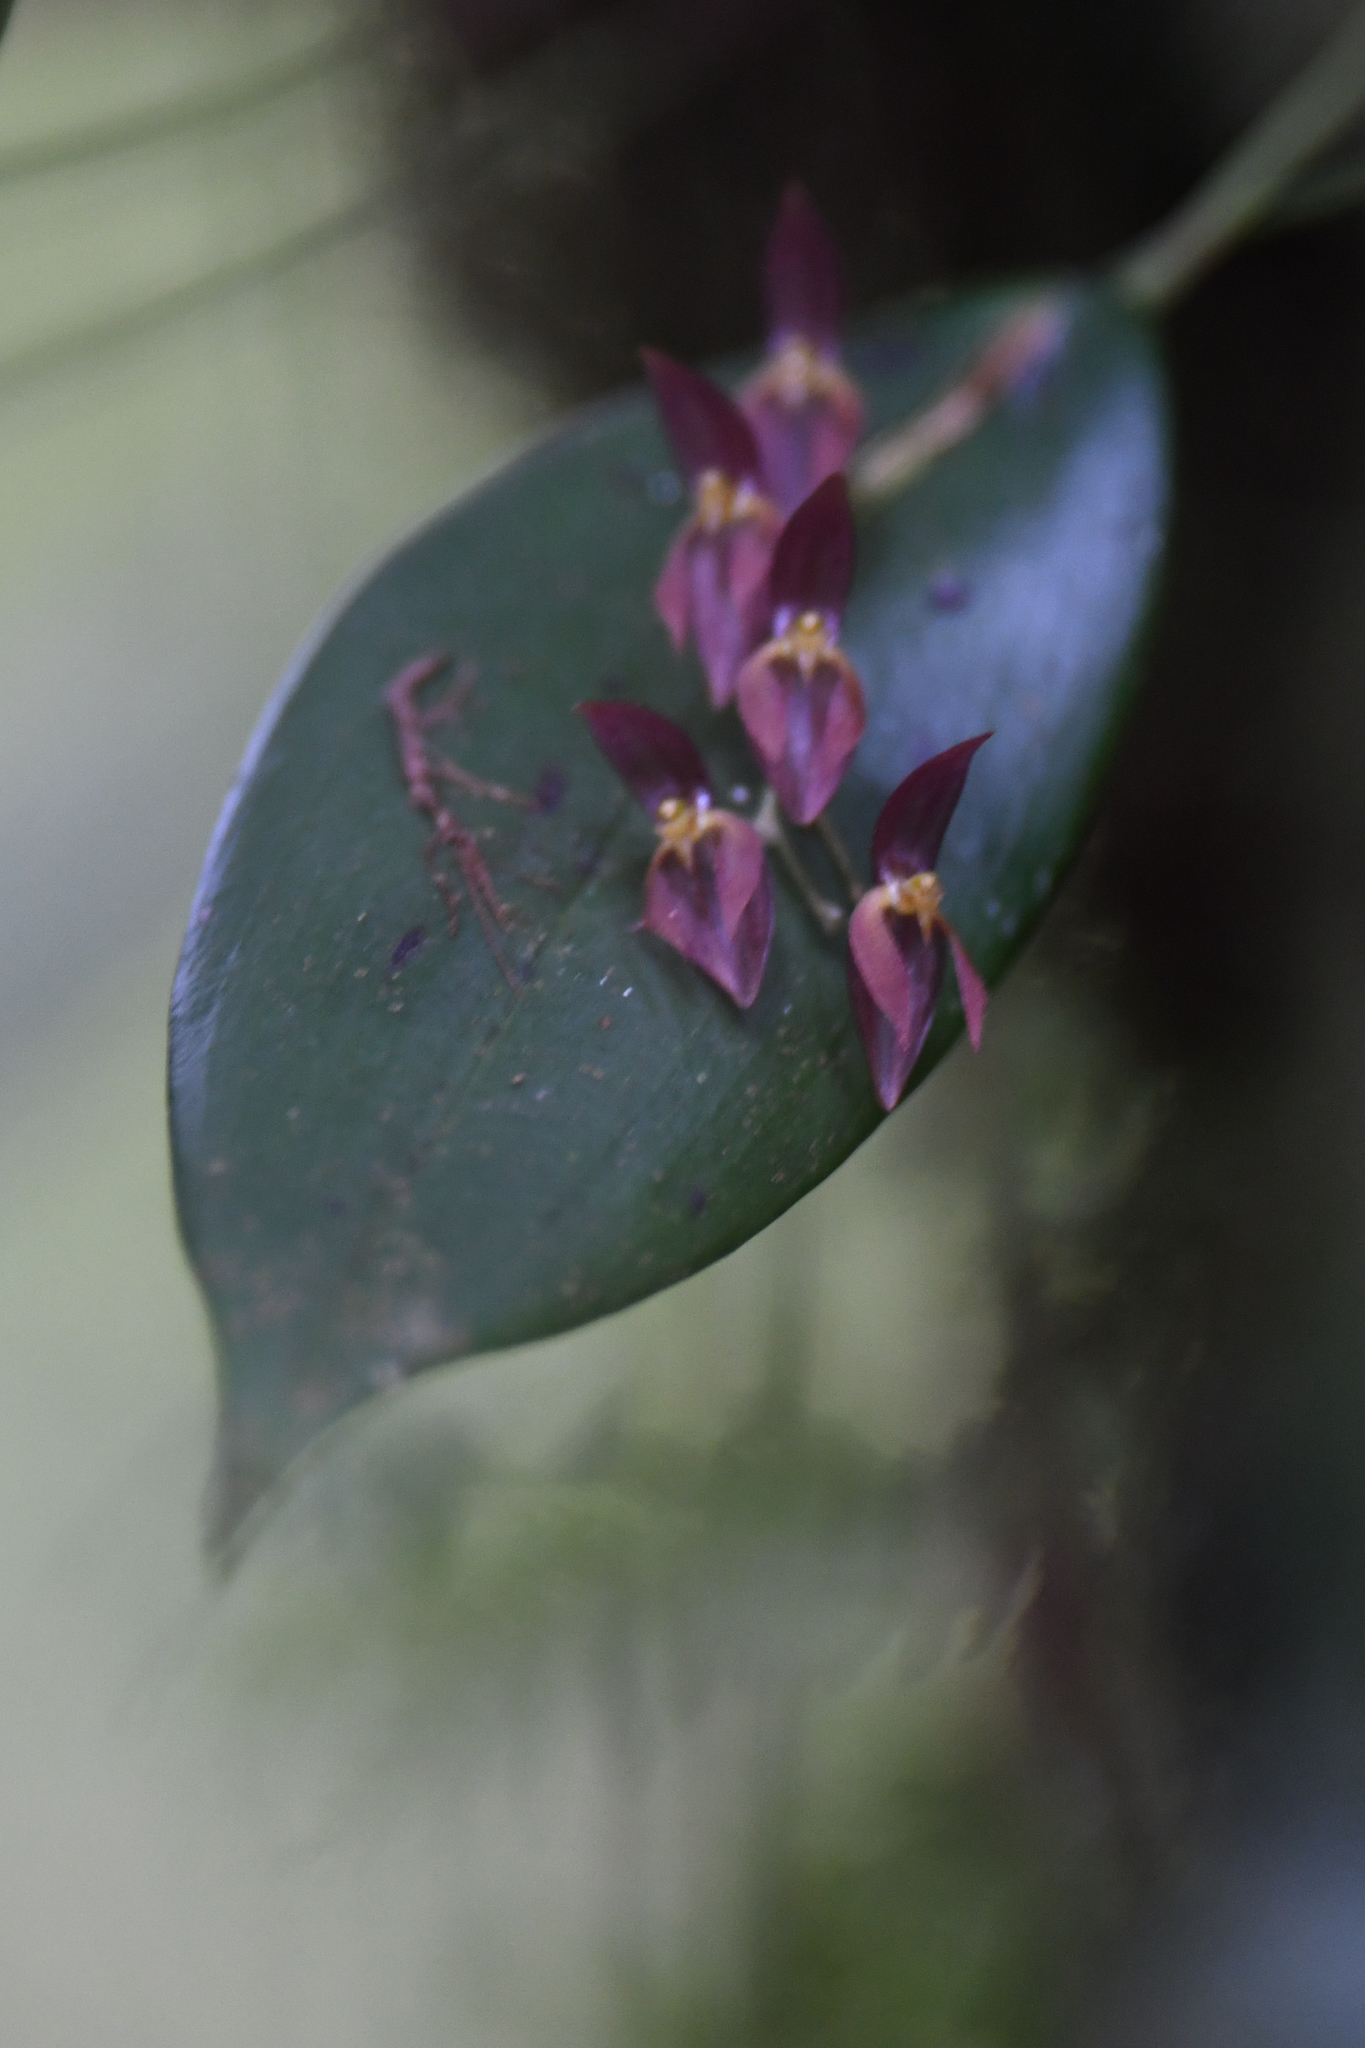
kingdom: Plantae
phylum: Tracheophyta
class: Liliopsida
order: Asparagales
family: Orchidaceae
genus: Pleurothallis
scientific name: Pleurothallis rowleei
